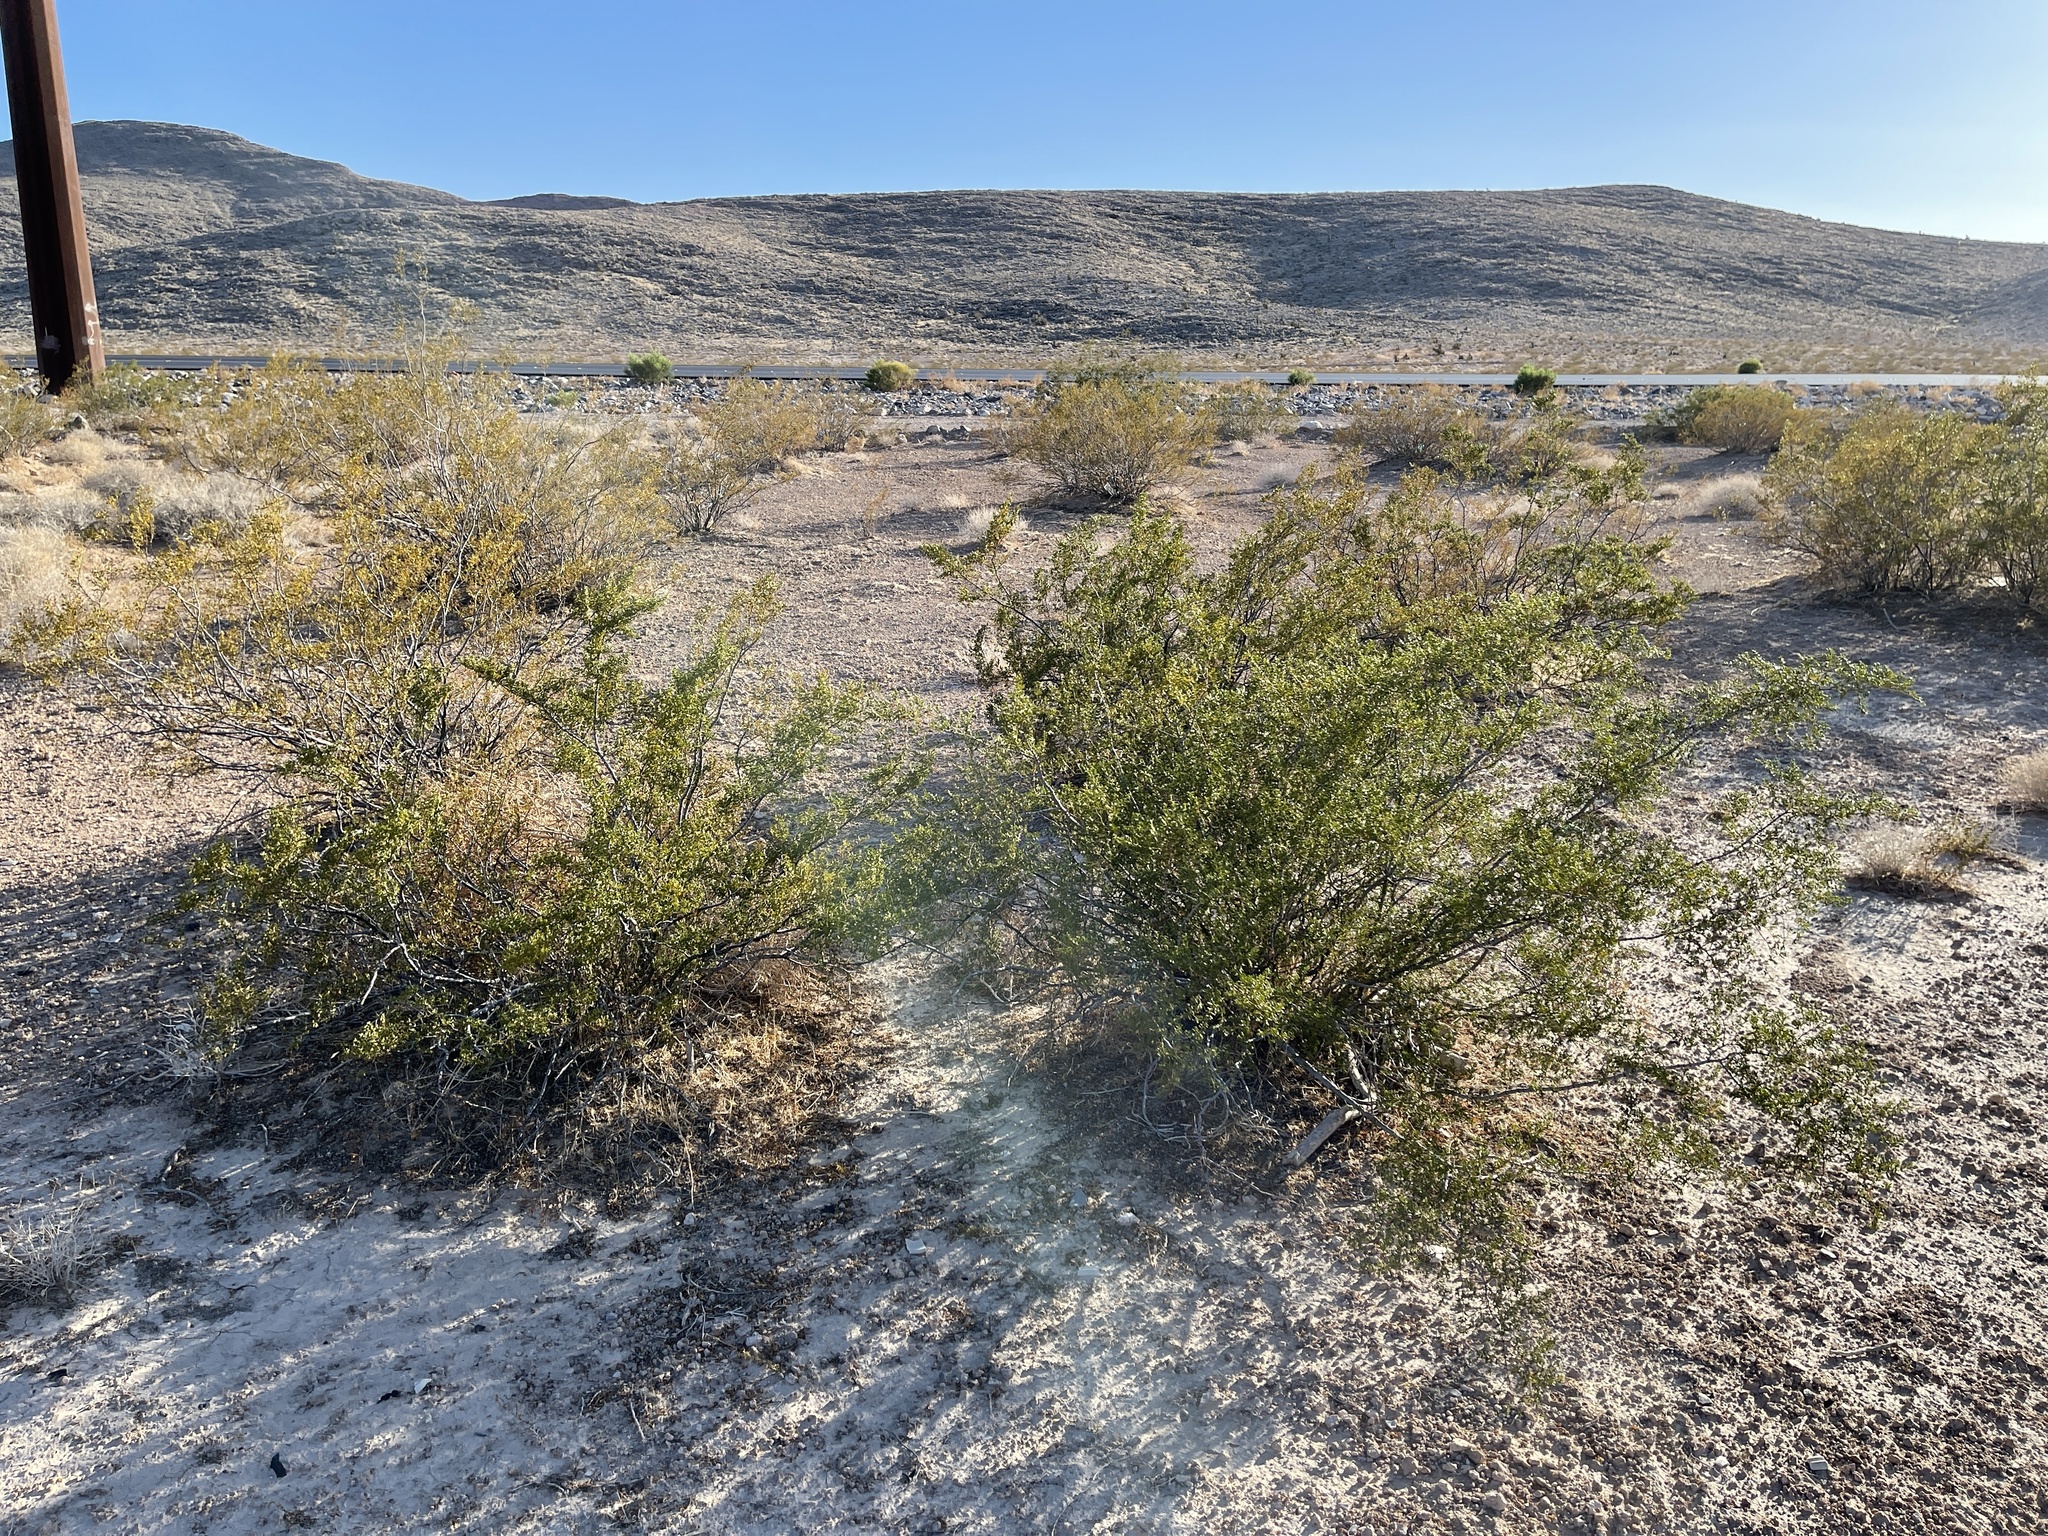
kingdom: Plantae
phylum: Tracheophyta
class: Magnoliopsida
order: Zygophyllales
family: Zygophyllaceae
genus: Larrea
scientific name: Larrea tridentata
